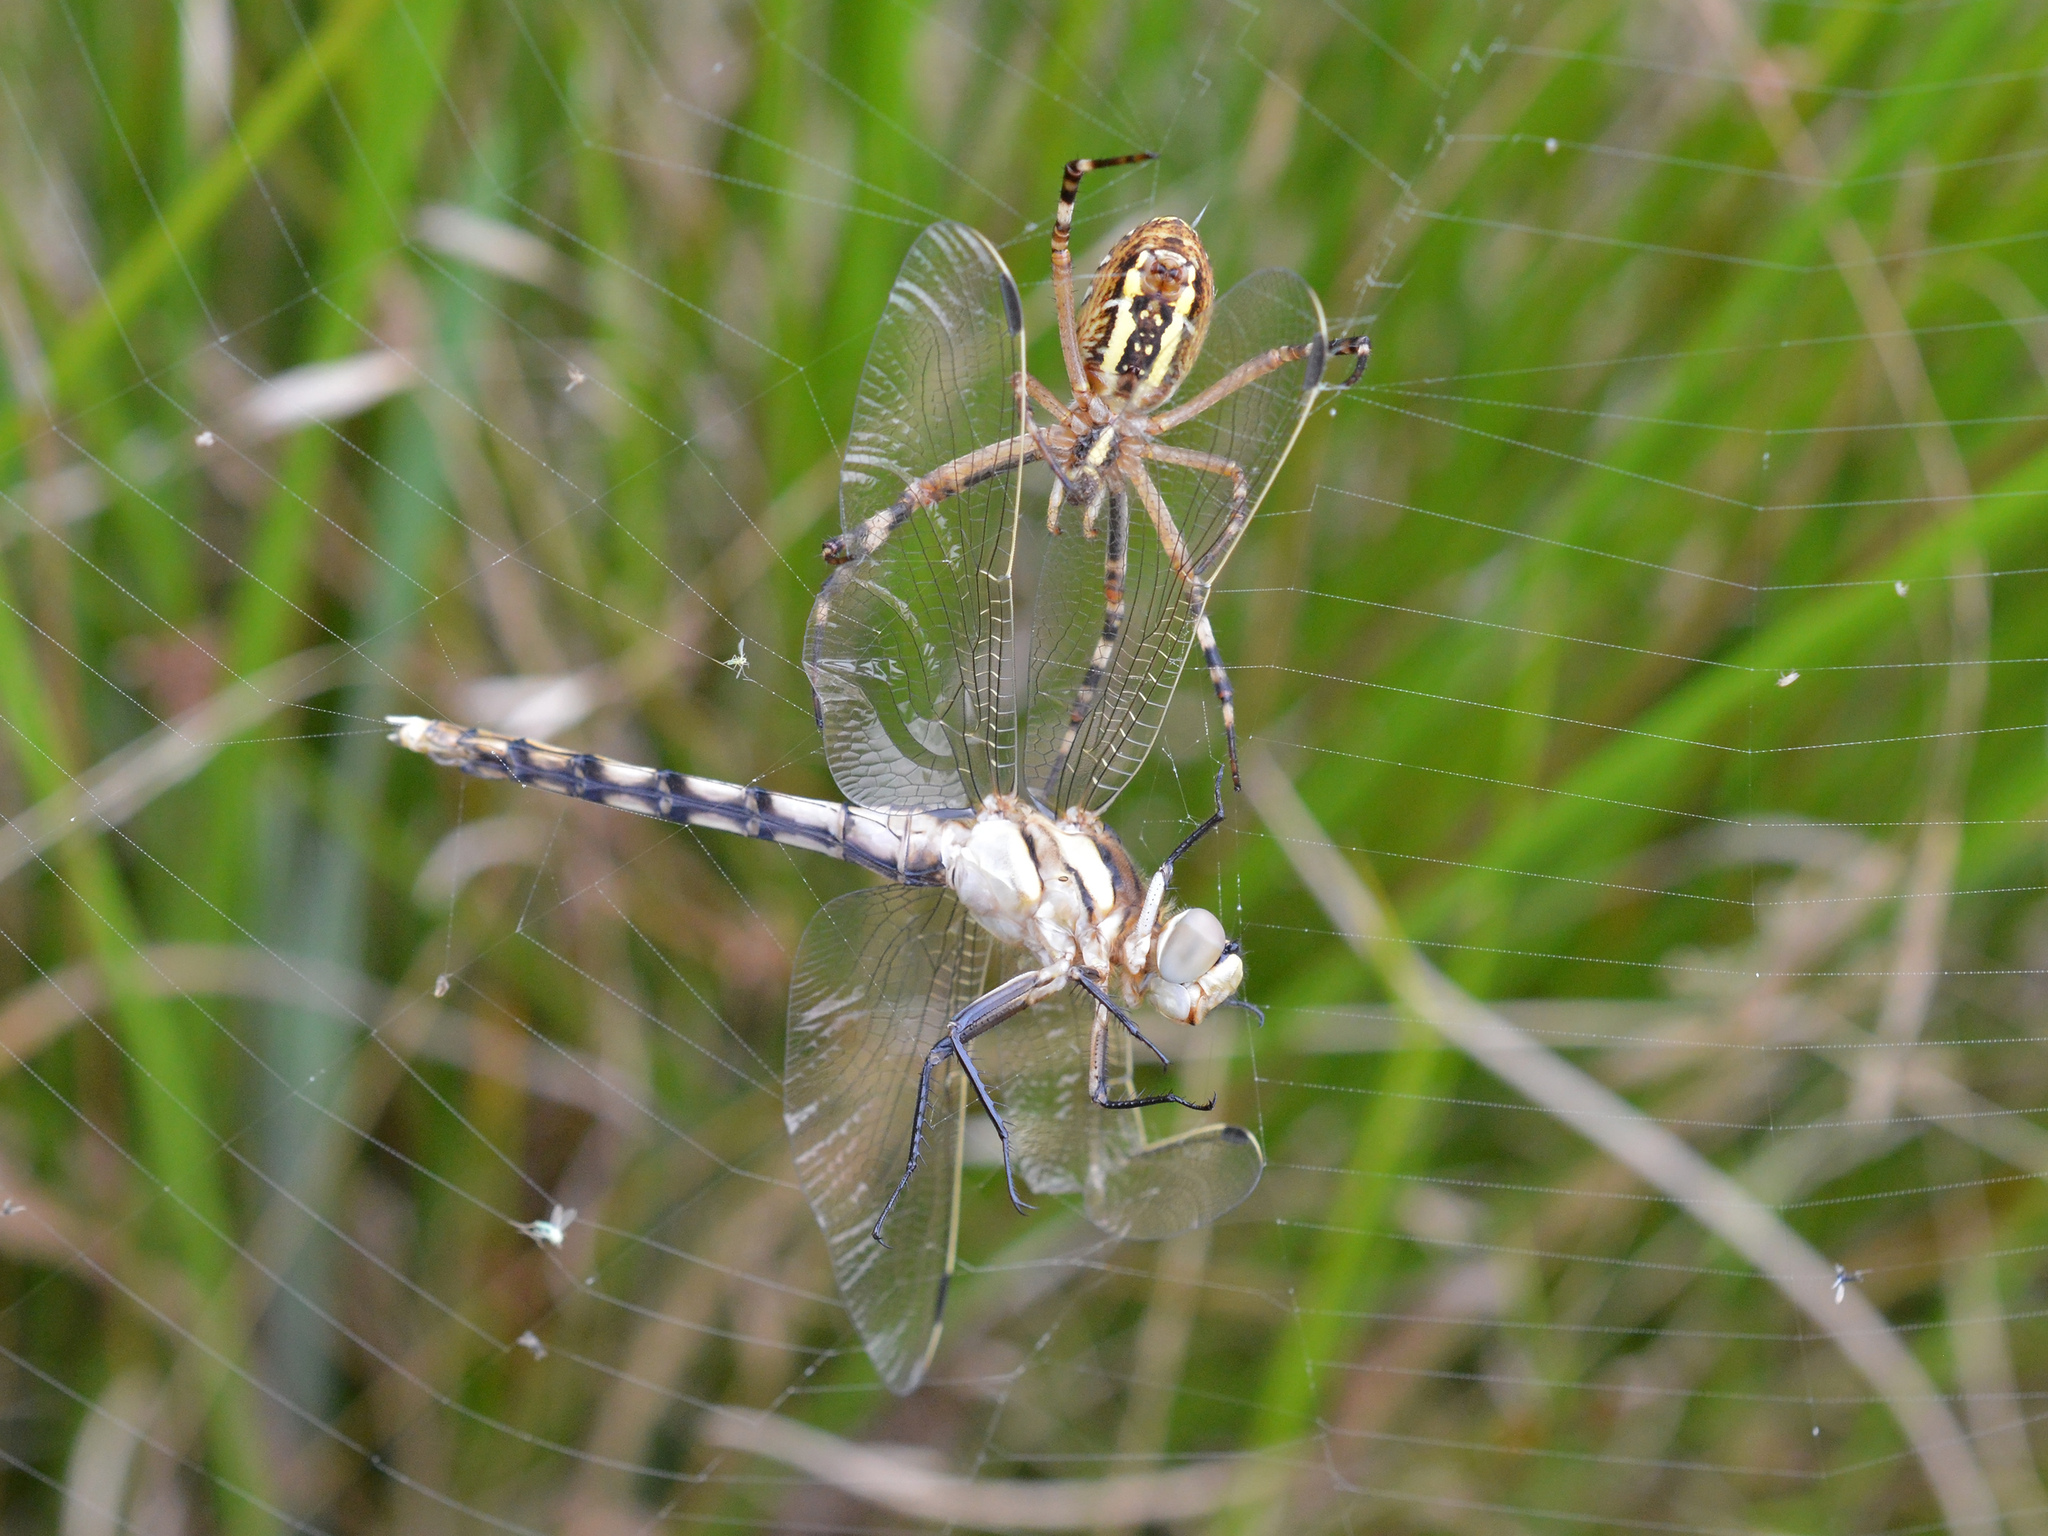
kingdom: Animalia
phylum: Arthropoda
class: Insecta
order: Odonata
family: Libellulidae
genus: Orthetrum
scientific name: Orthetrum albistylum
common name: White-tailed skimmer
